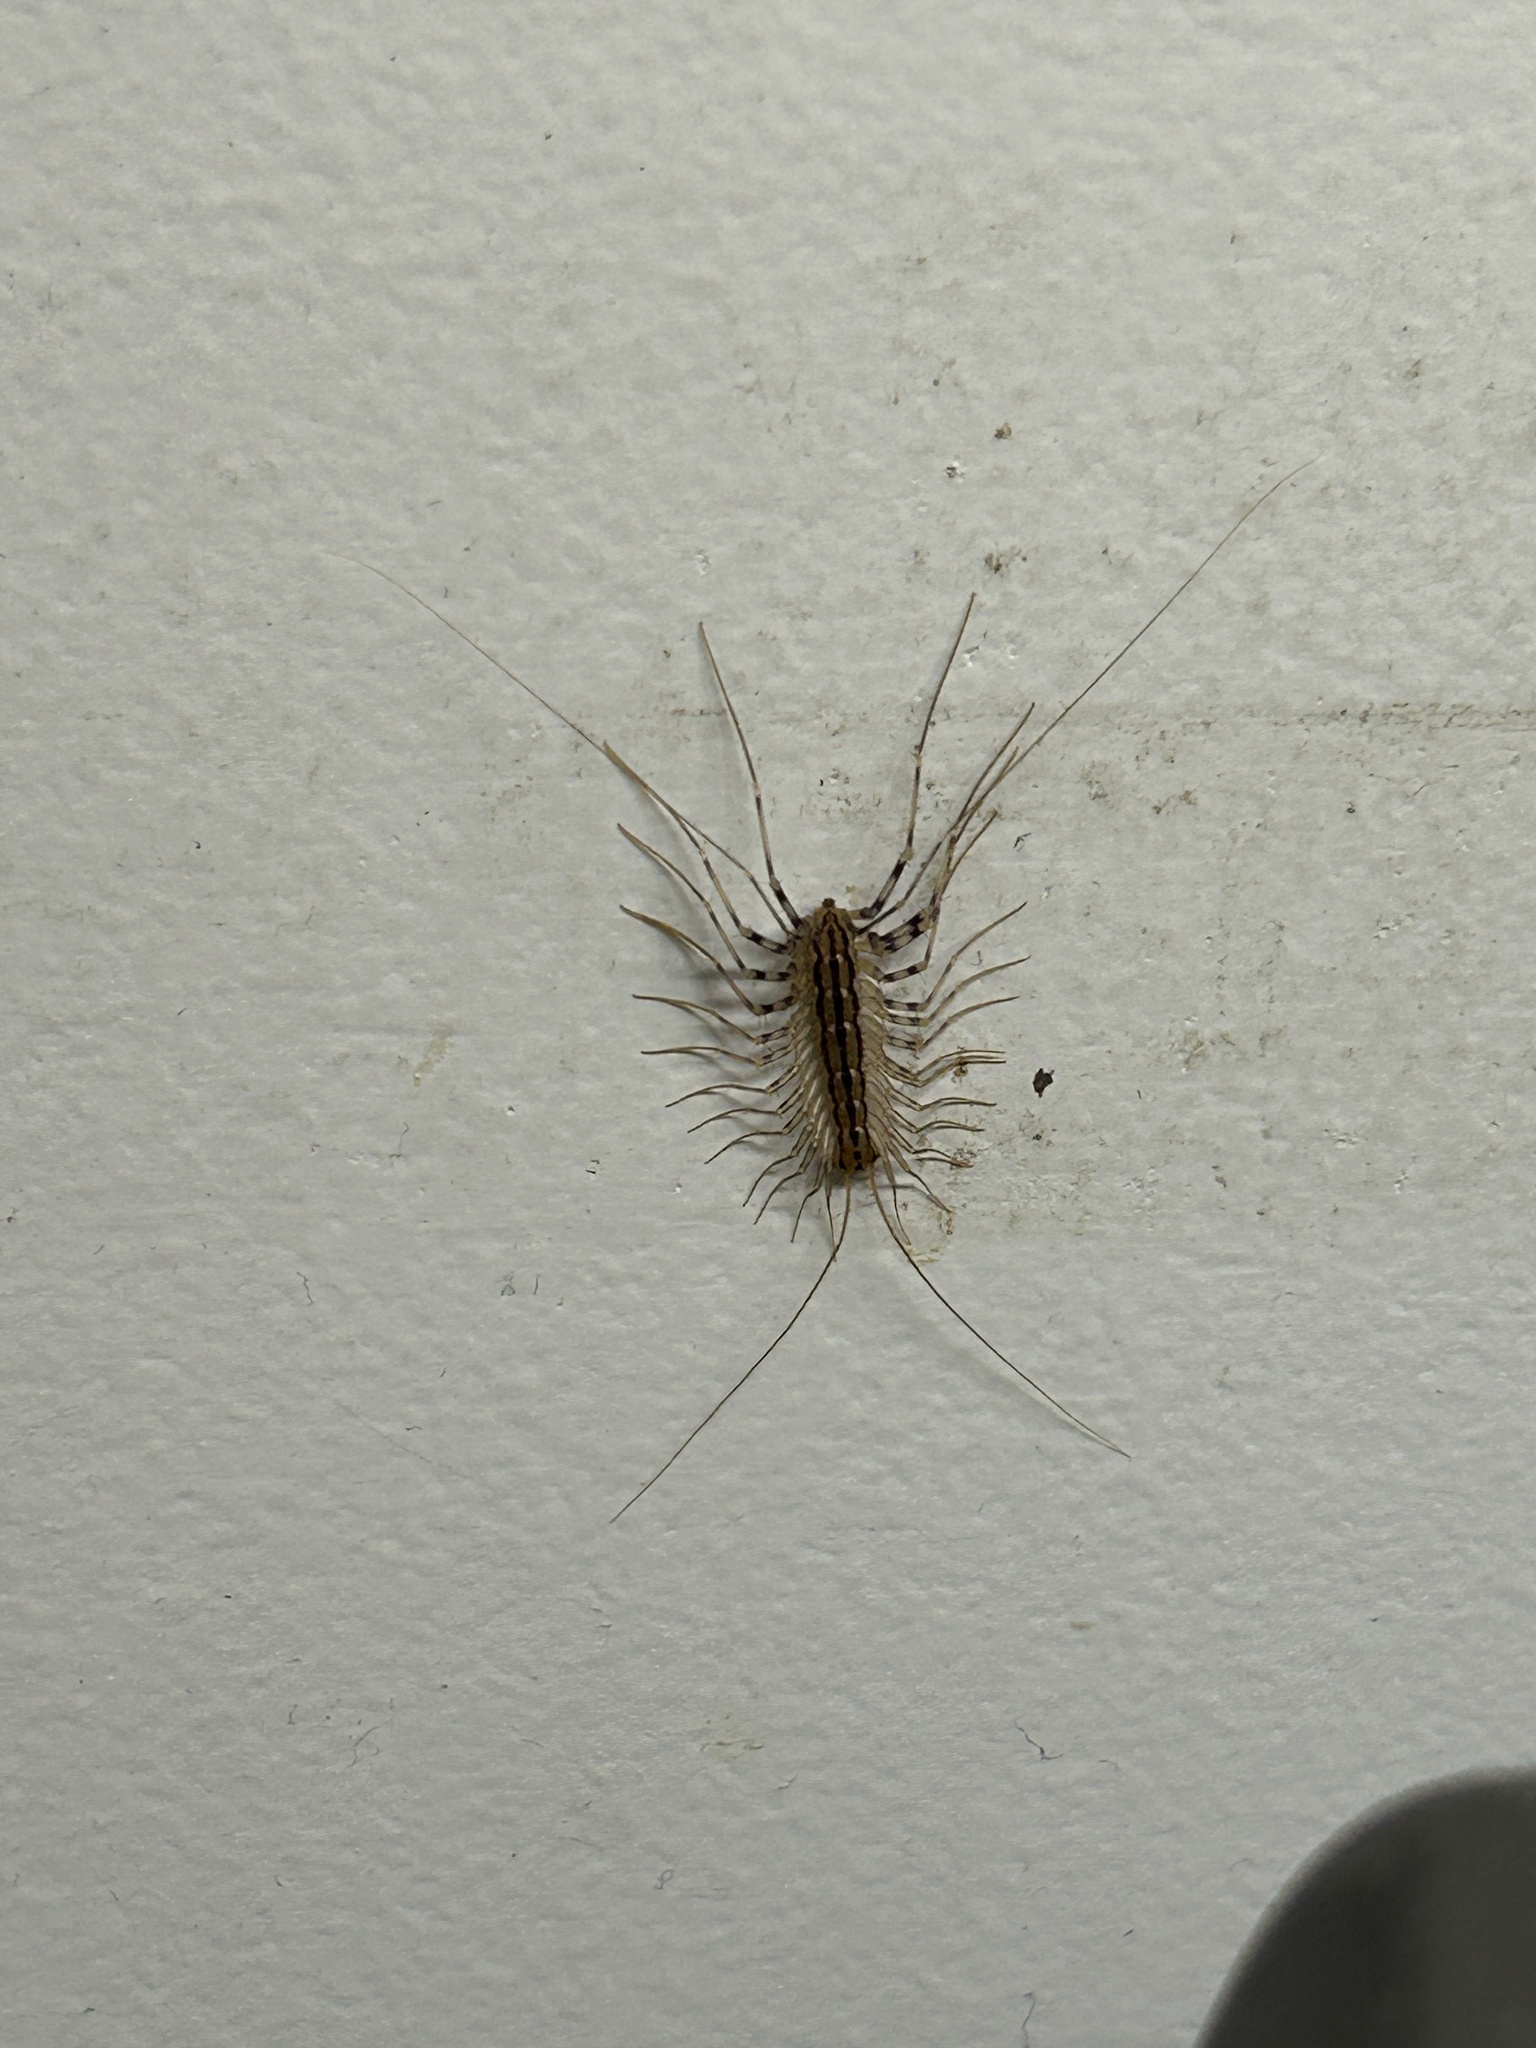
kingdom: Animalia
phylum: Arthropoda
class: Chilopoda
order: Scutigeromorpha
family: Scutigeridae
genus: Scutigera
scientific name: Scutigera coleoptrata
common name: House centipede
